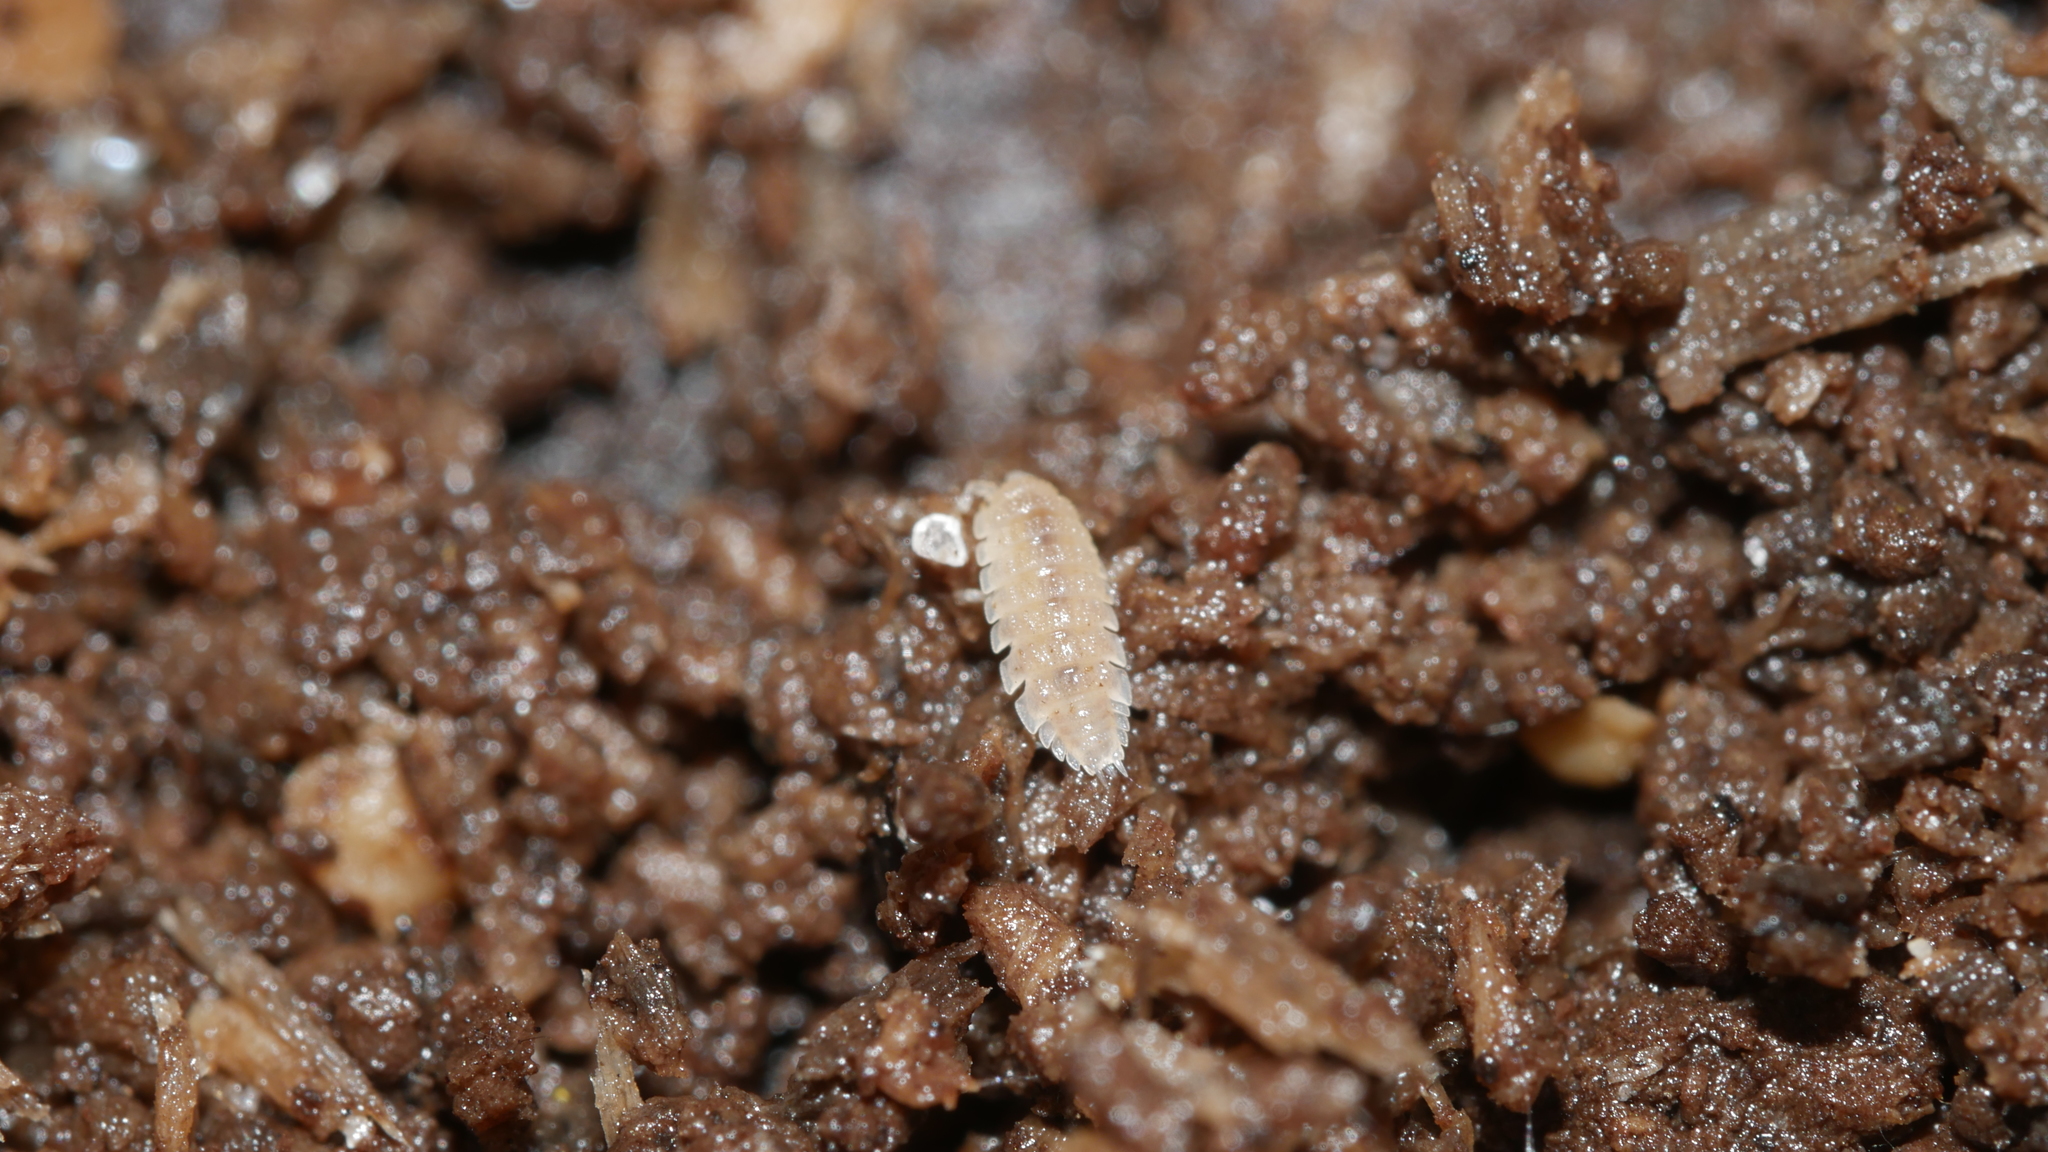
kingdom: Animalia
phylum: Arthropoda
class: Malacostraca
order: Isopoda
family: Trichoniscidae
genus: Haplophthalmus
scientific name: Haplophthalmus danicus
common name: Pillbug
